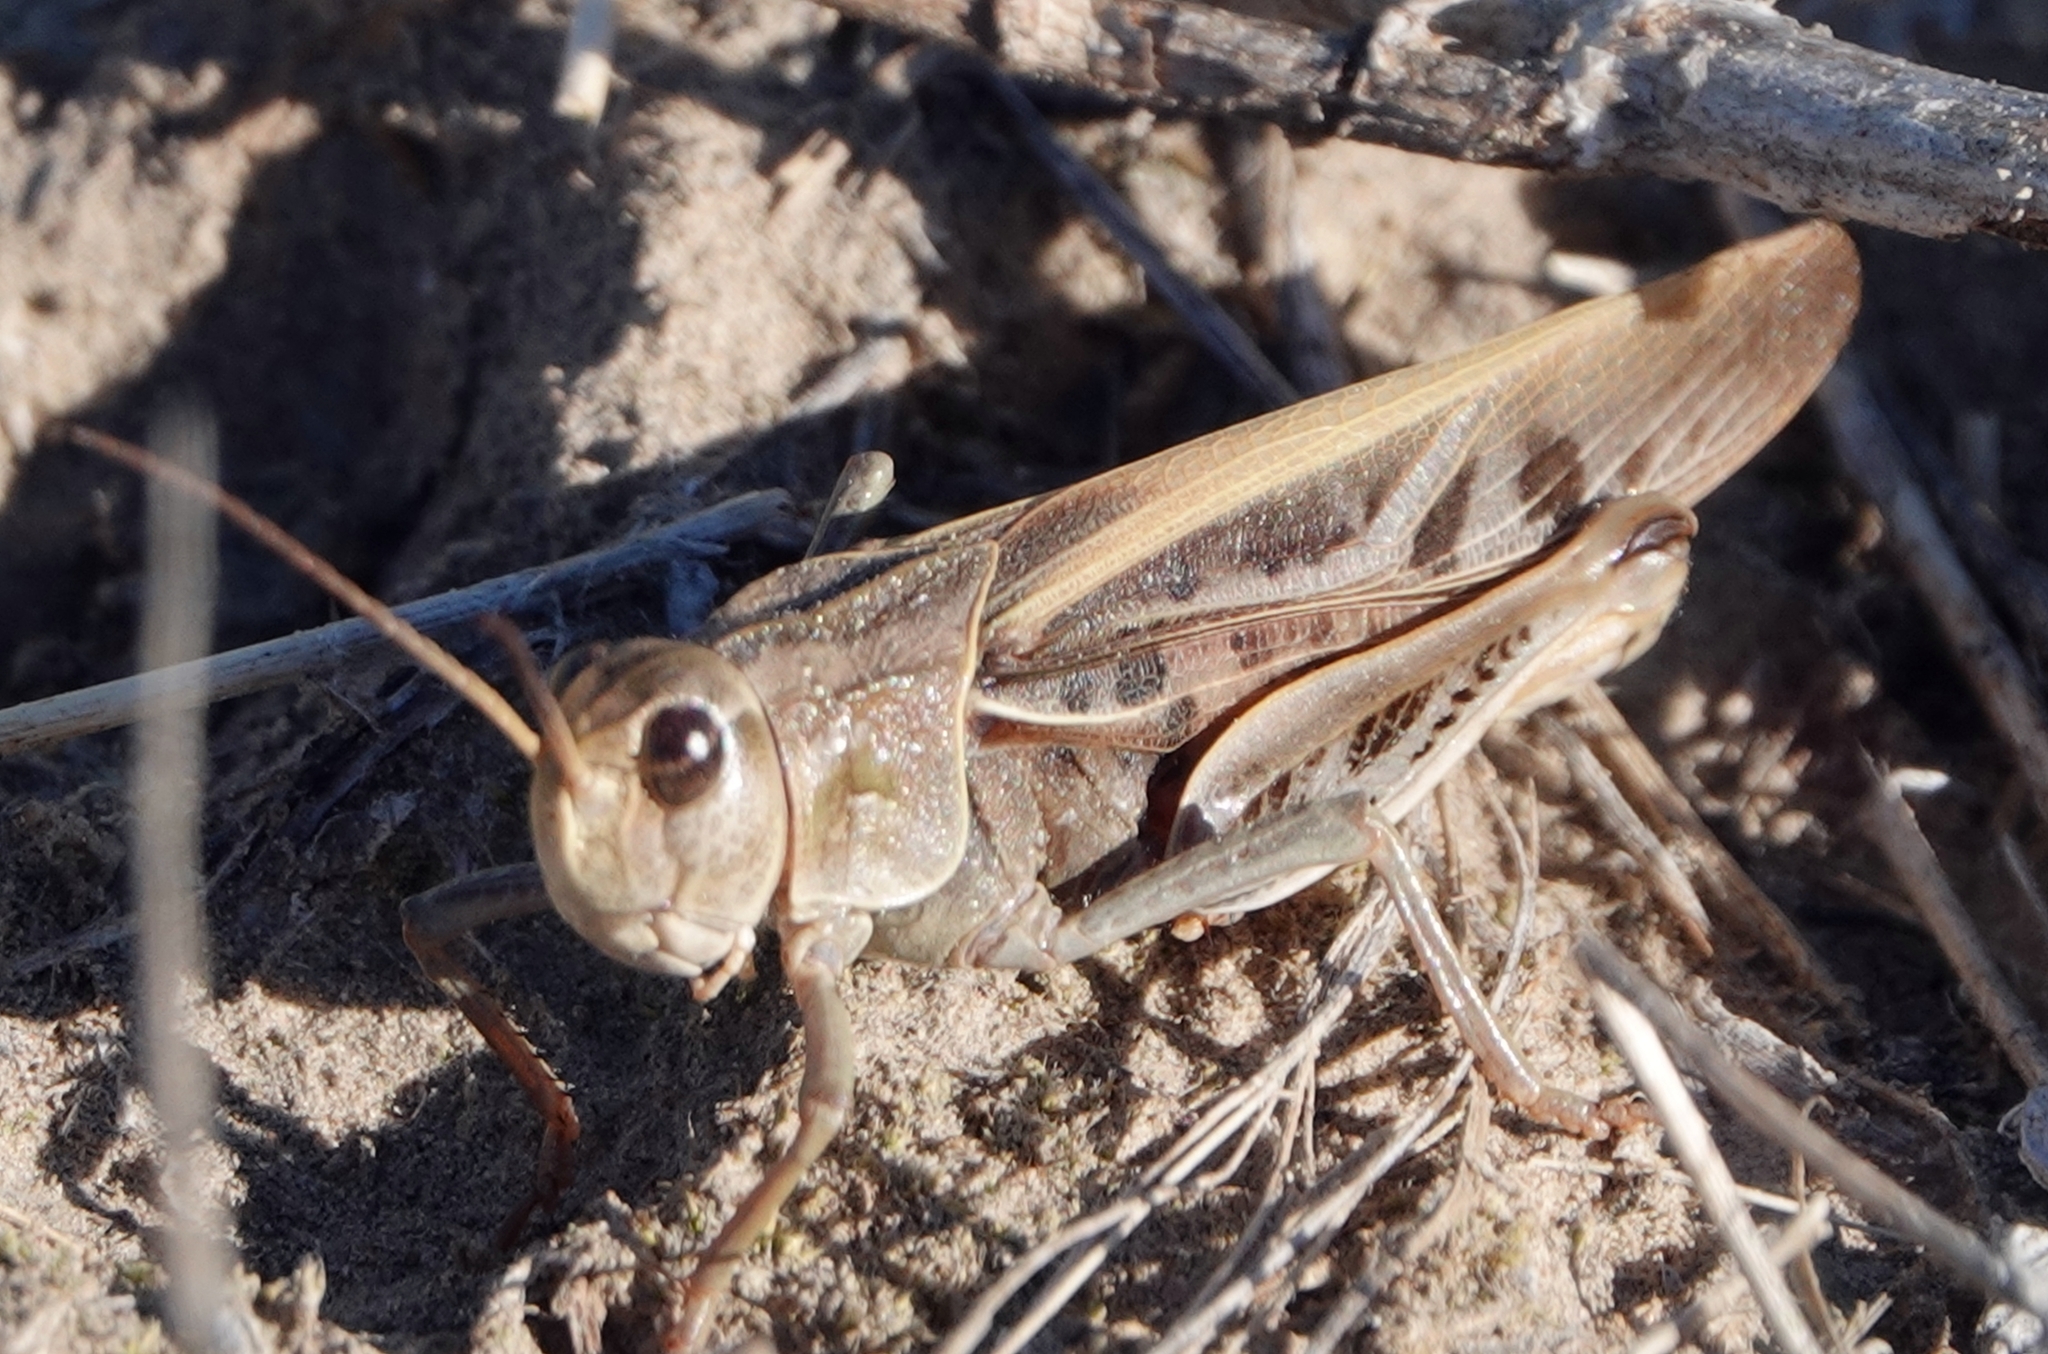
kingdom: Animalia
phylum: Arthropoda
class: Insecta
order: Orthoptera
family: Acrididae
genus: Pardalophora
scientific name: Pardalophora apiculata
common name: Coral-winged locust
